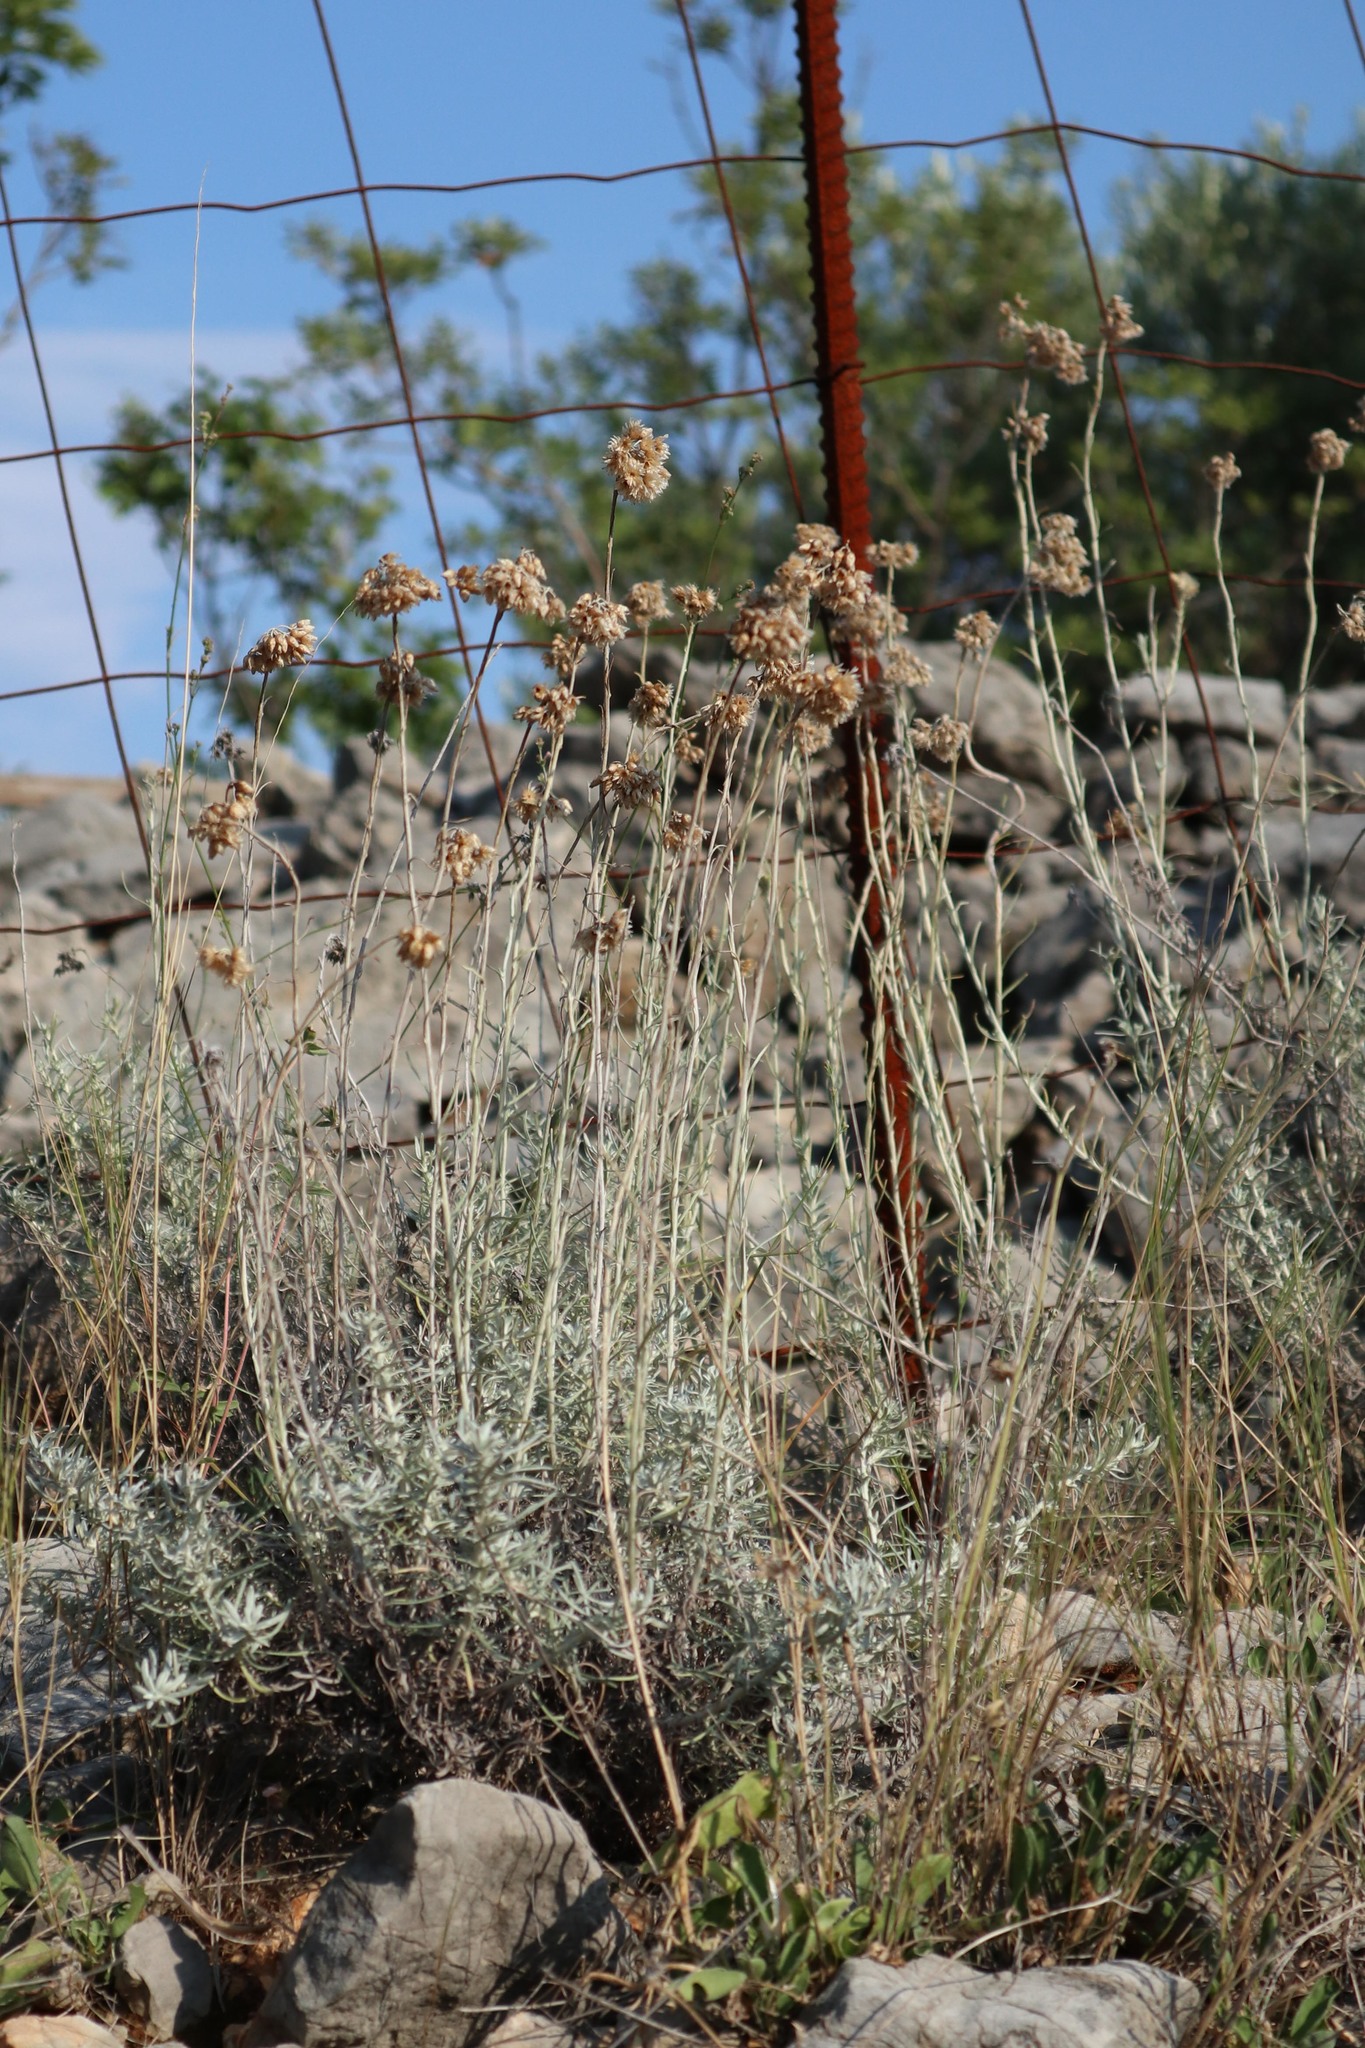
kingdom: Plantae
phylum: Tracheophyta
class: Magnoliopsida
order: Asterales
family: Asteraceae
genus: Helichrysum
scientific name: Helichrysum italicum
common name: Curryplant
